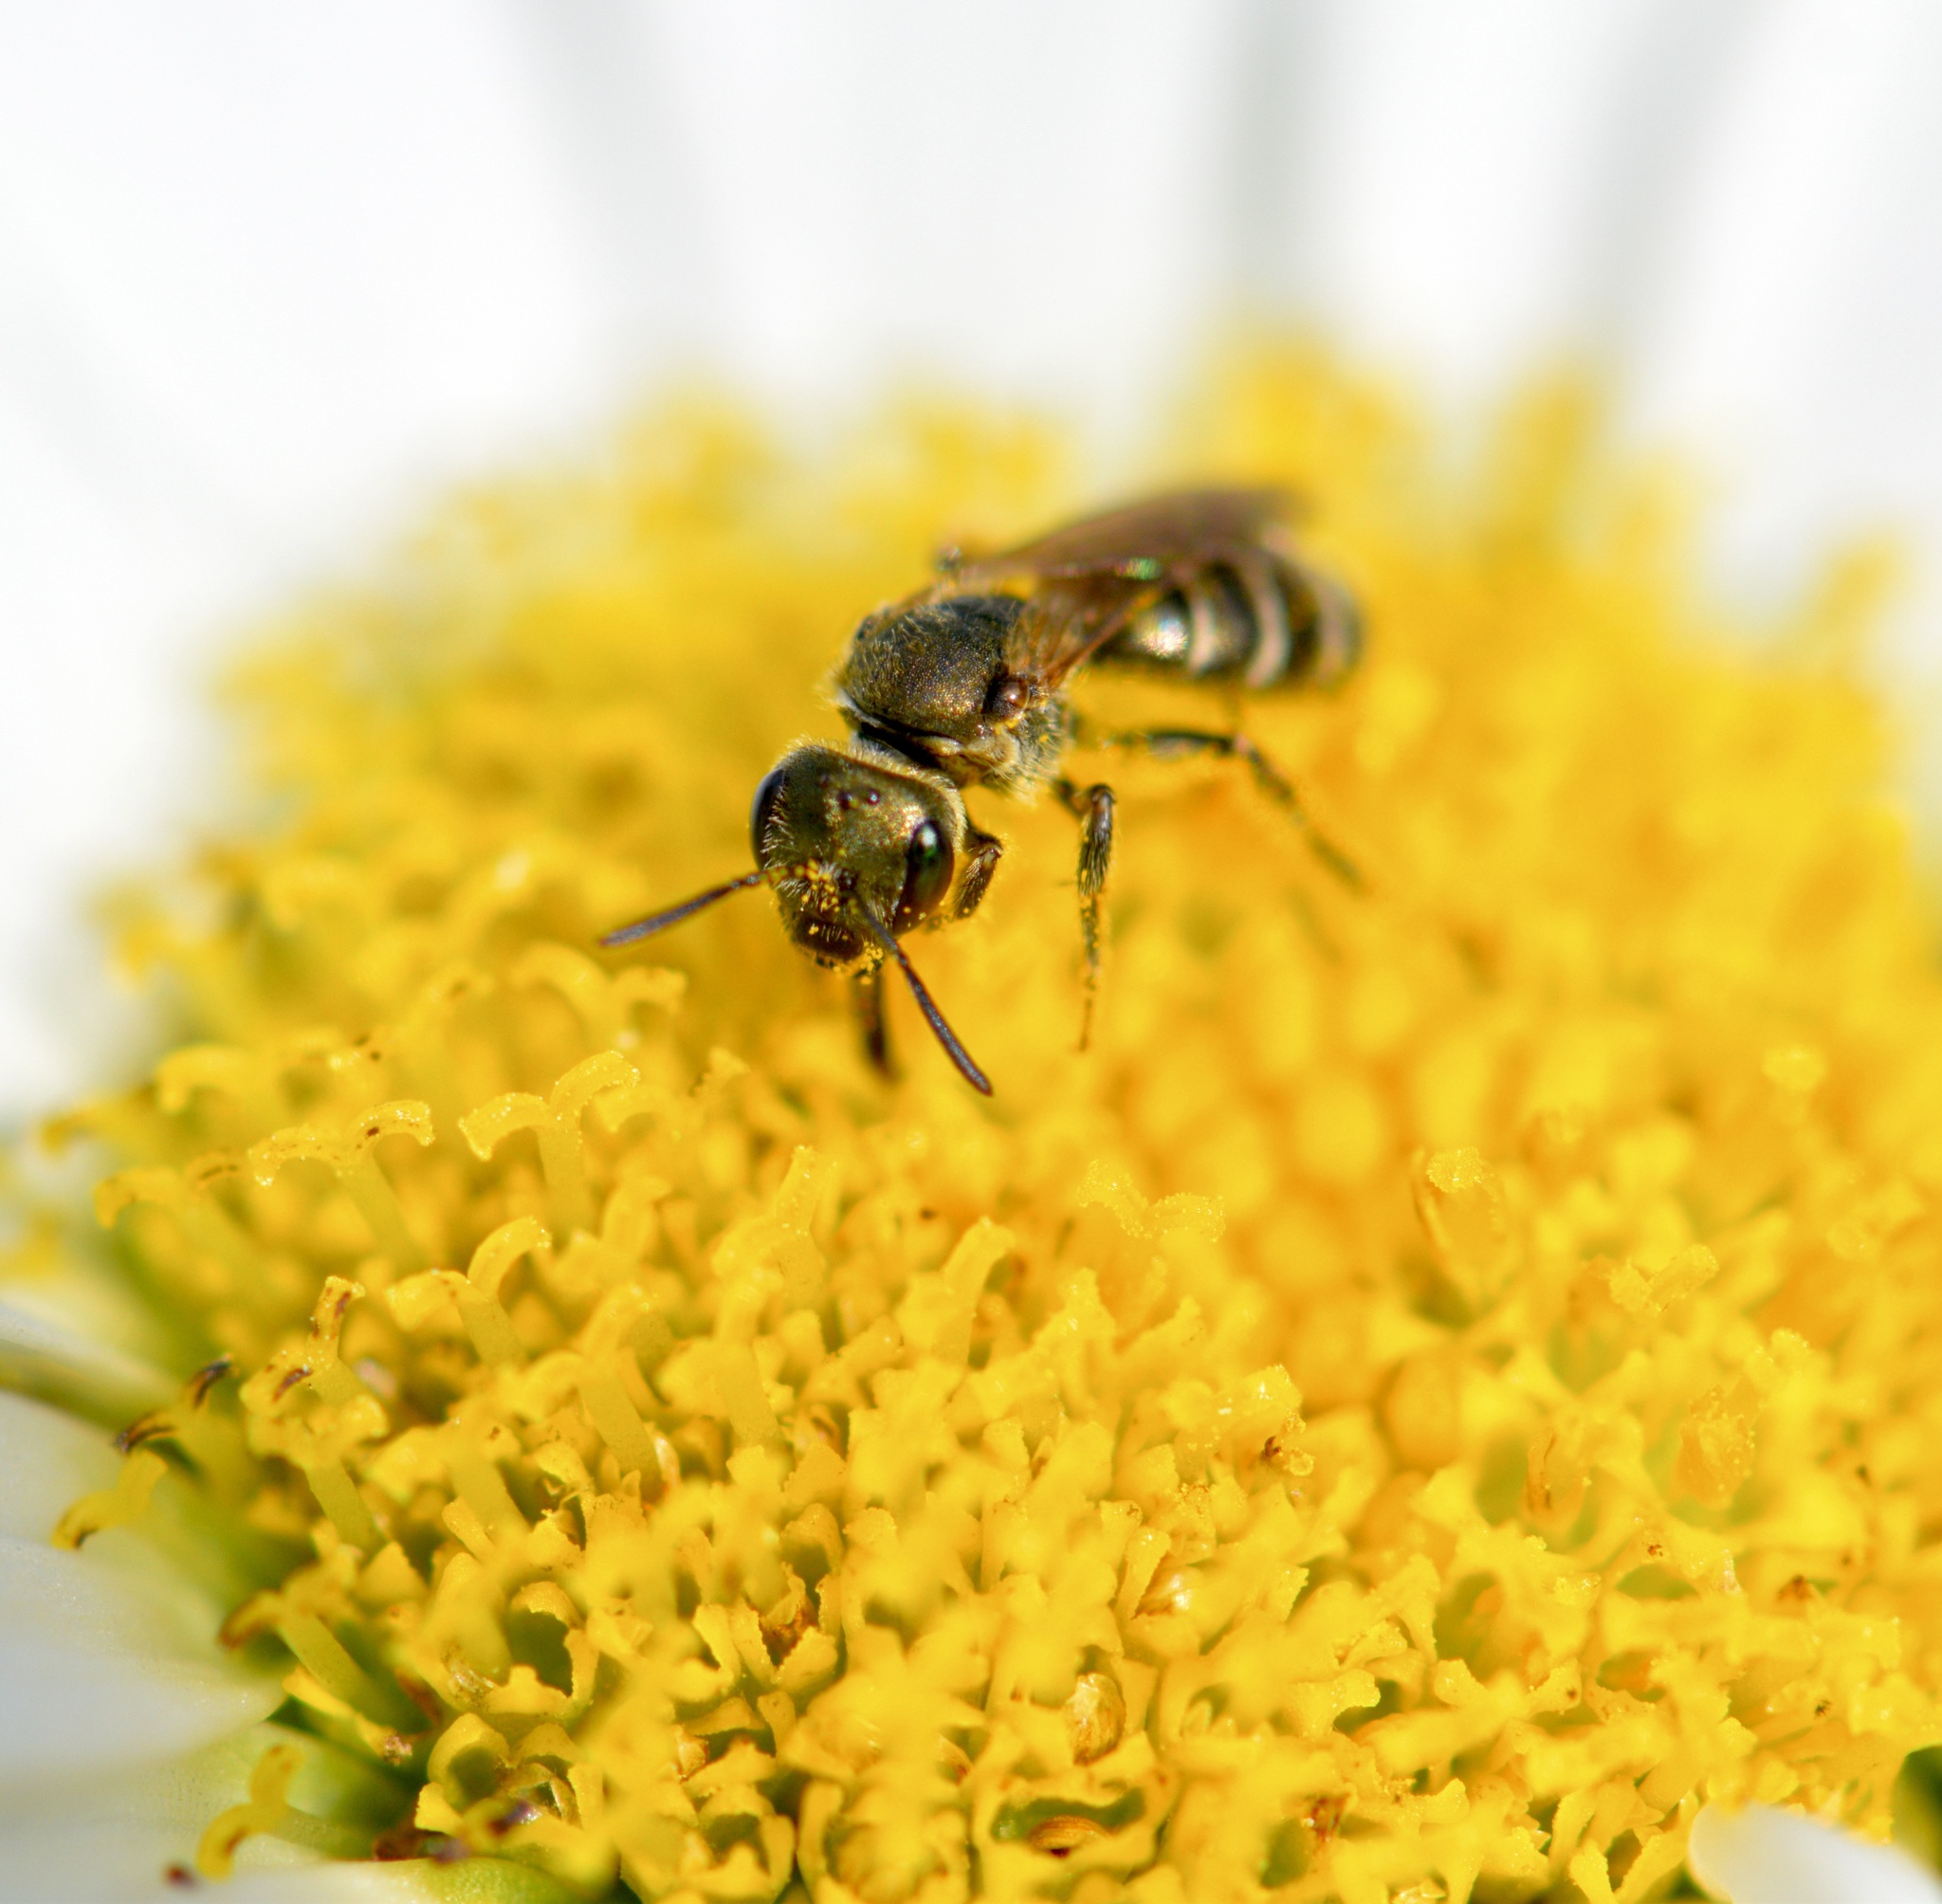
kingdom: Animalia
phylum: Arthropoda
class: Insecta
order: Hymenoptera
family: Halictidae
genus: Halictus
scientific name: Halictus confusus
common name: Southern bronze furrow bee
